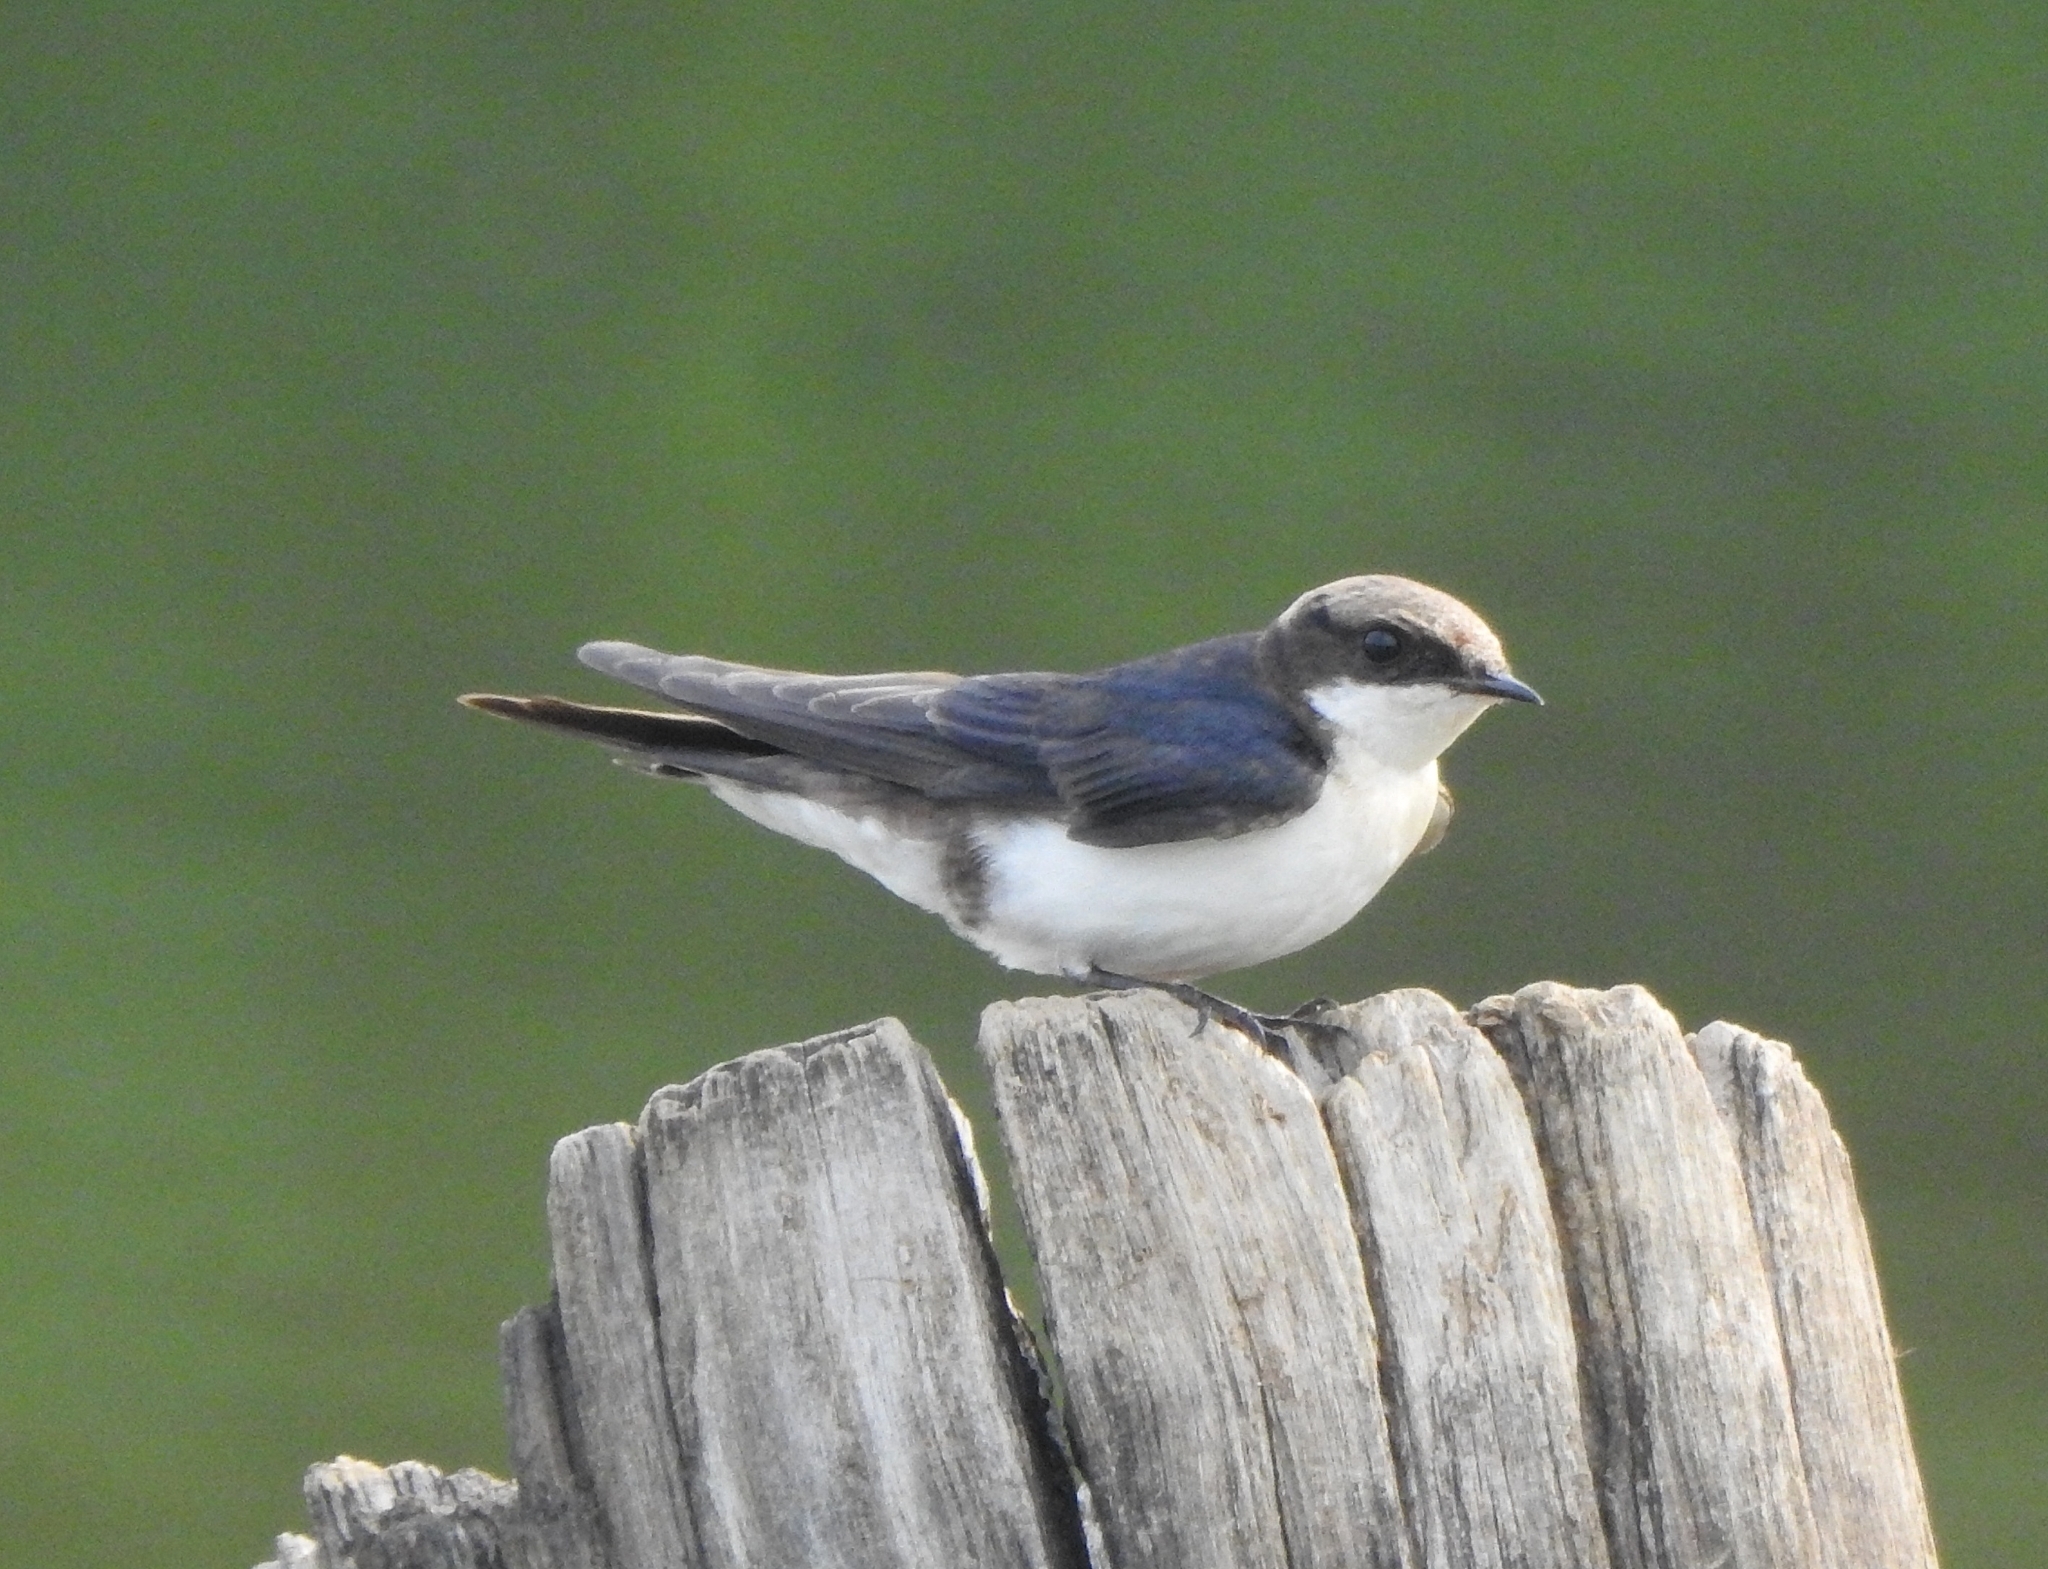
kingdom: Animalia
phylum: Chordata
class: Aves
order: Passeriformes
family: Hirundinidae
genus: Hirundo
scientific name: Hirundo smithii
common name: Wire-tailed swallow
